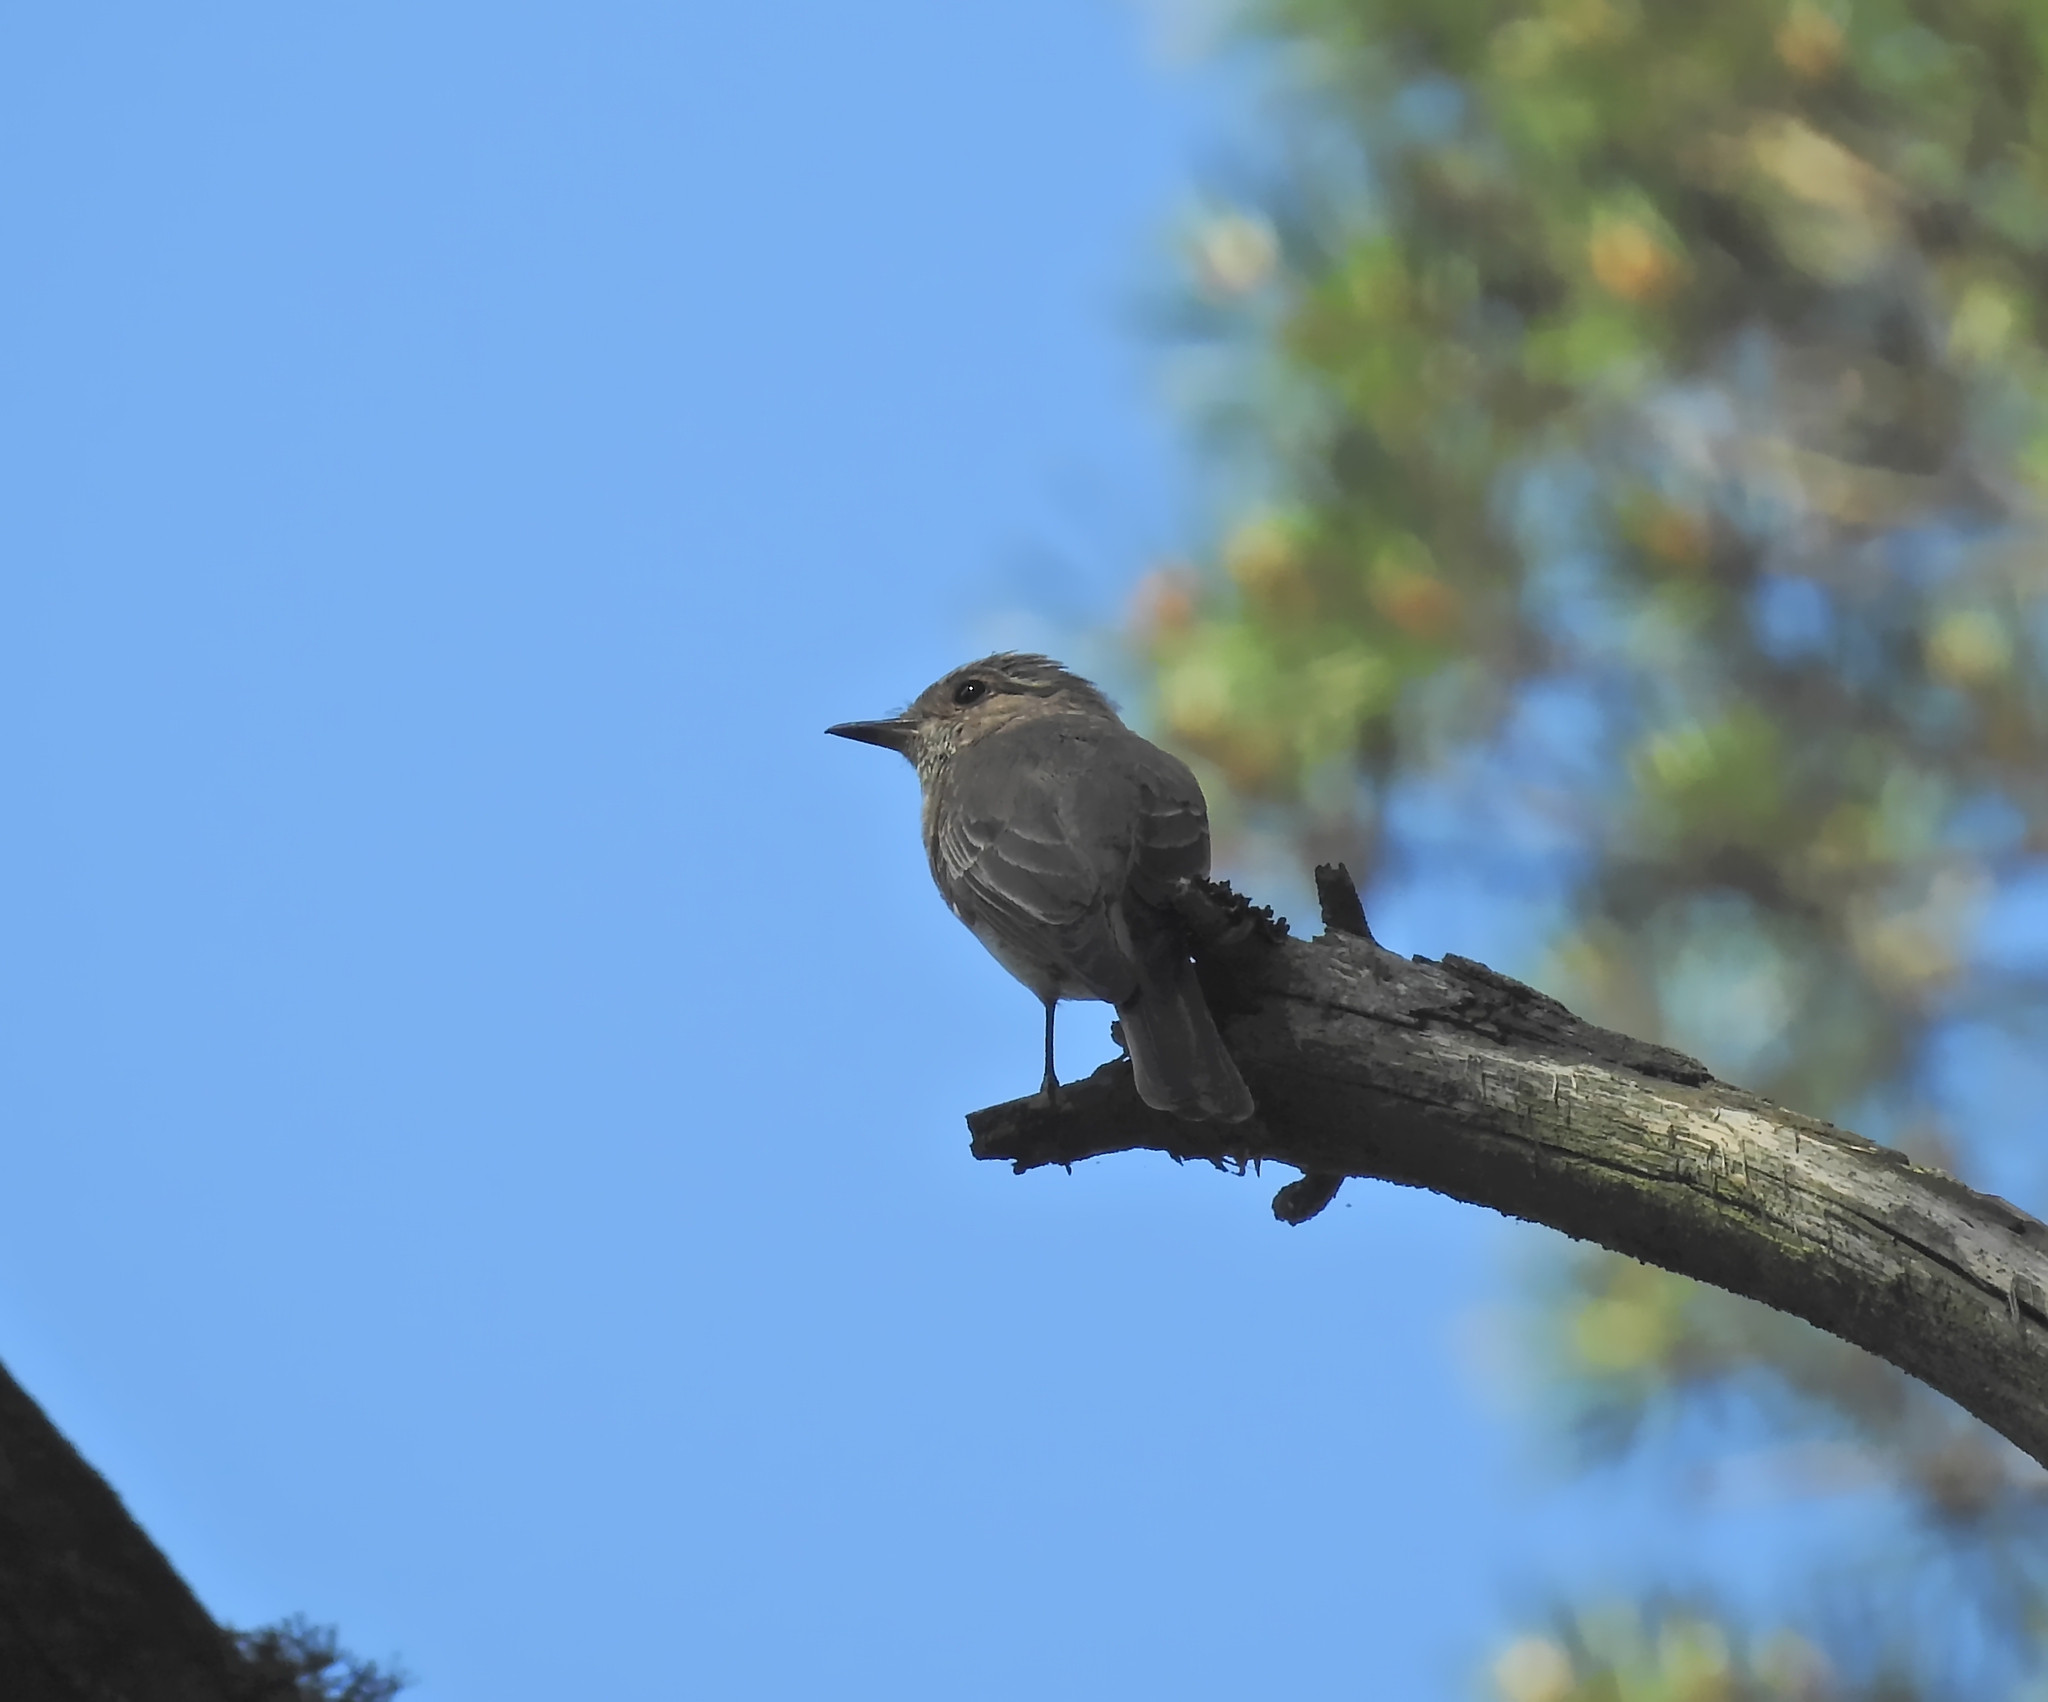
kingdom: Animalia
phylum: Chordata
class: Aves
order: Passeriformes
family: Muscicapidae
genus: Muscicapa
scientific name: Muscicapa striata
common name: Spotted flycatcher
